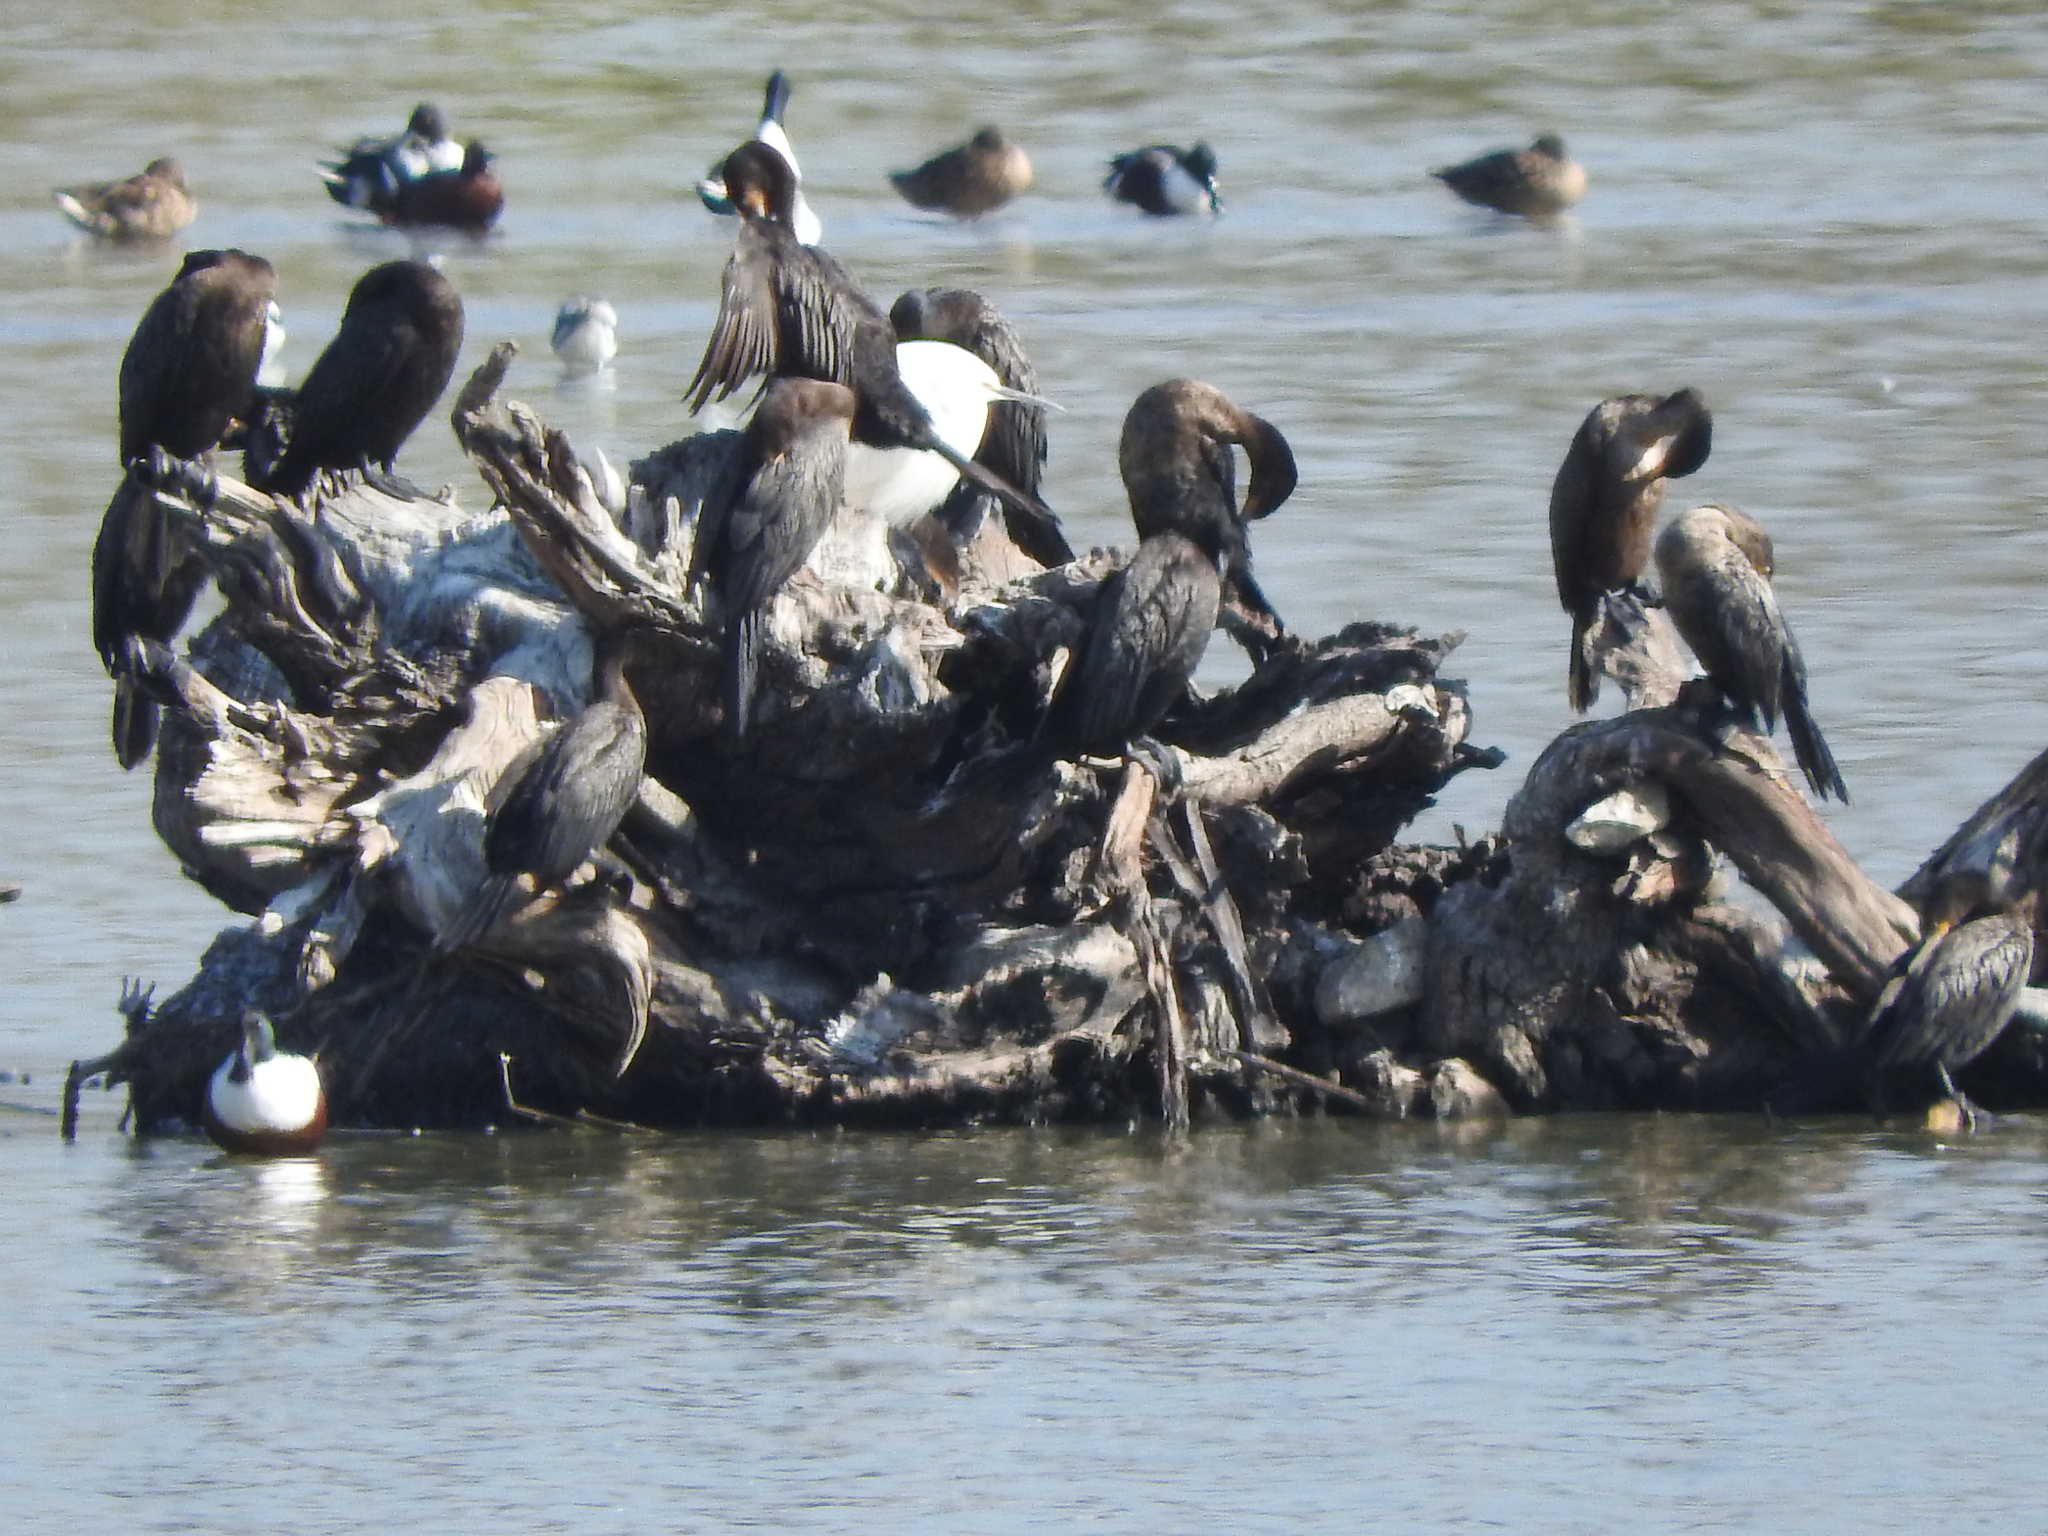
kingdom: Animalia
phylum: Chordata
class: Aves
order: Anseriformes
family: Anatidae
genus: Spatula
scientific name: Spatula clypeata
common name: Northern shoveler
